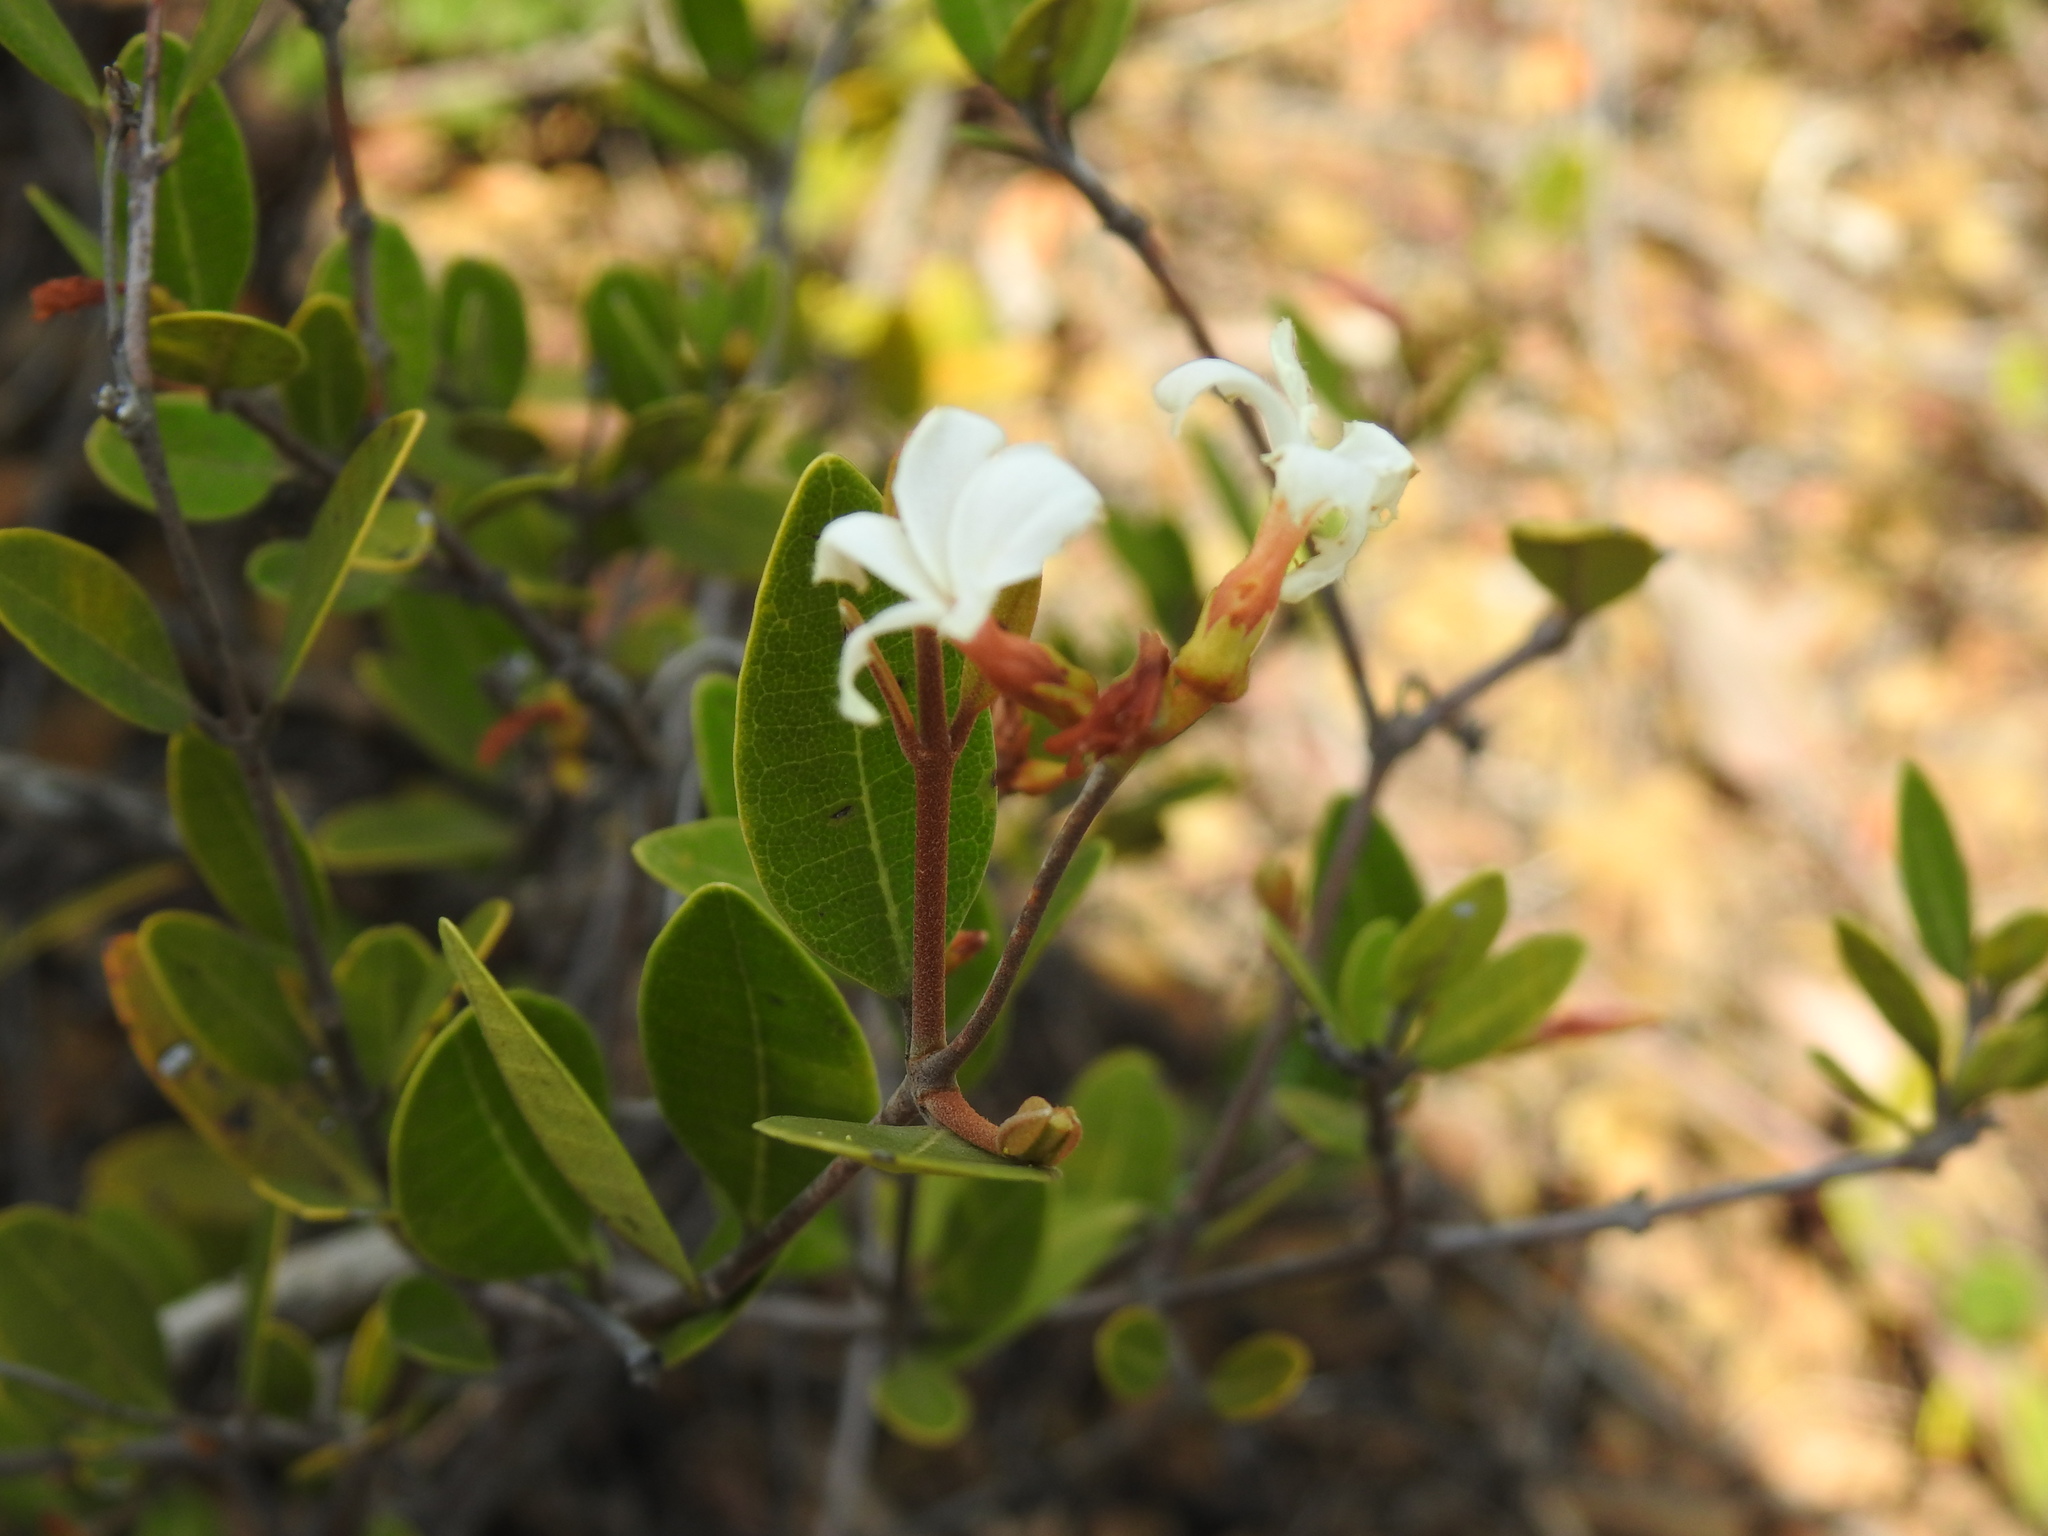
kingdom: Plantae
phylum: Tracheophyta
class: Magnoliopsida
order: Gentianales
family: Apocynaceae
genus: Ancylobothrys
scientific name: Ancylobothrys capensis
